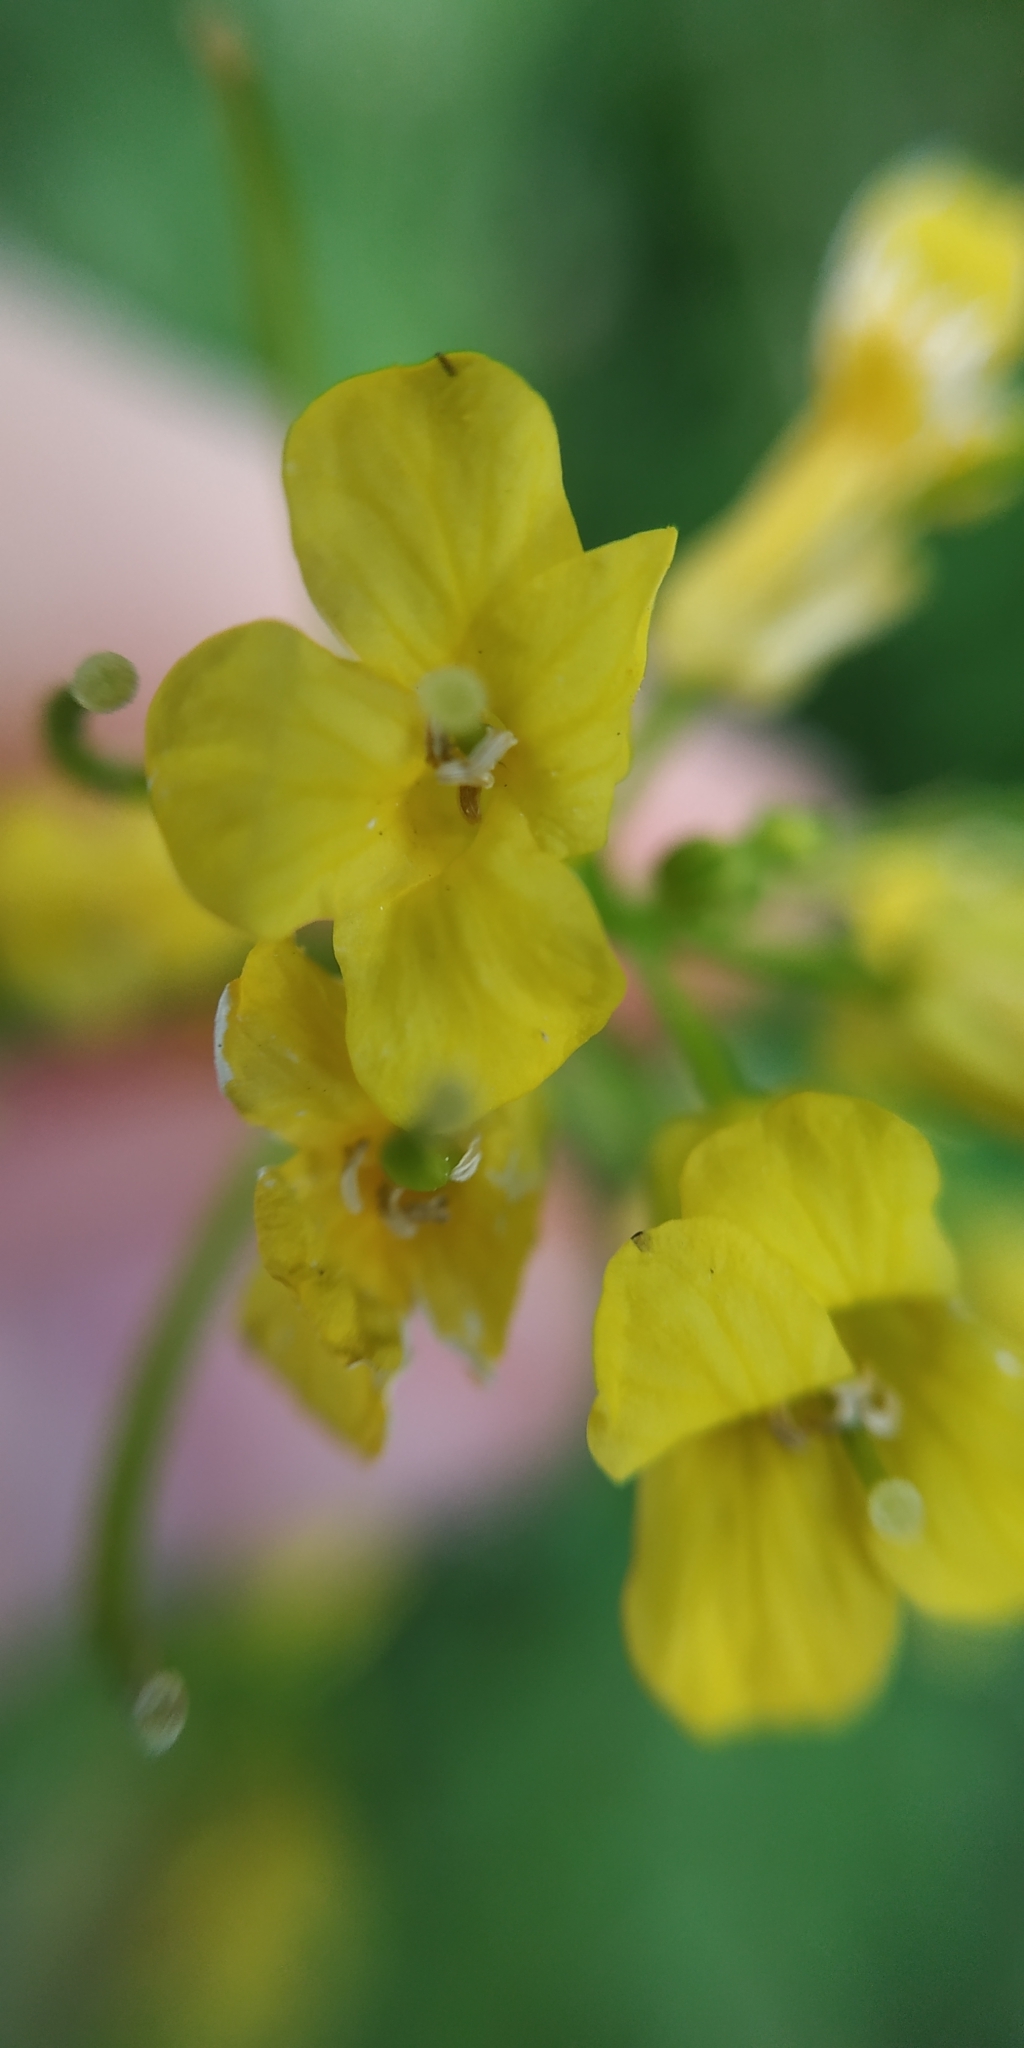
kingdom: Plantae
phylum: Tracheophyta
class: Magnoliopsida
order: Brassicales
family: Brassicaceae
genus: Barbarea
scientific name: Barbarea vulgaris
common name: Cressy-greens
